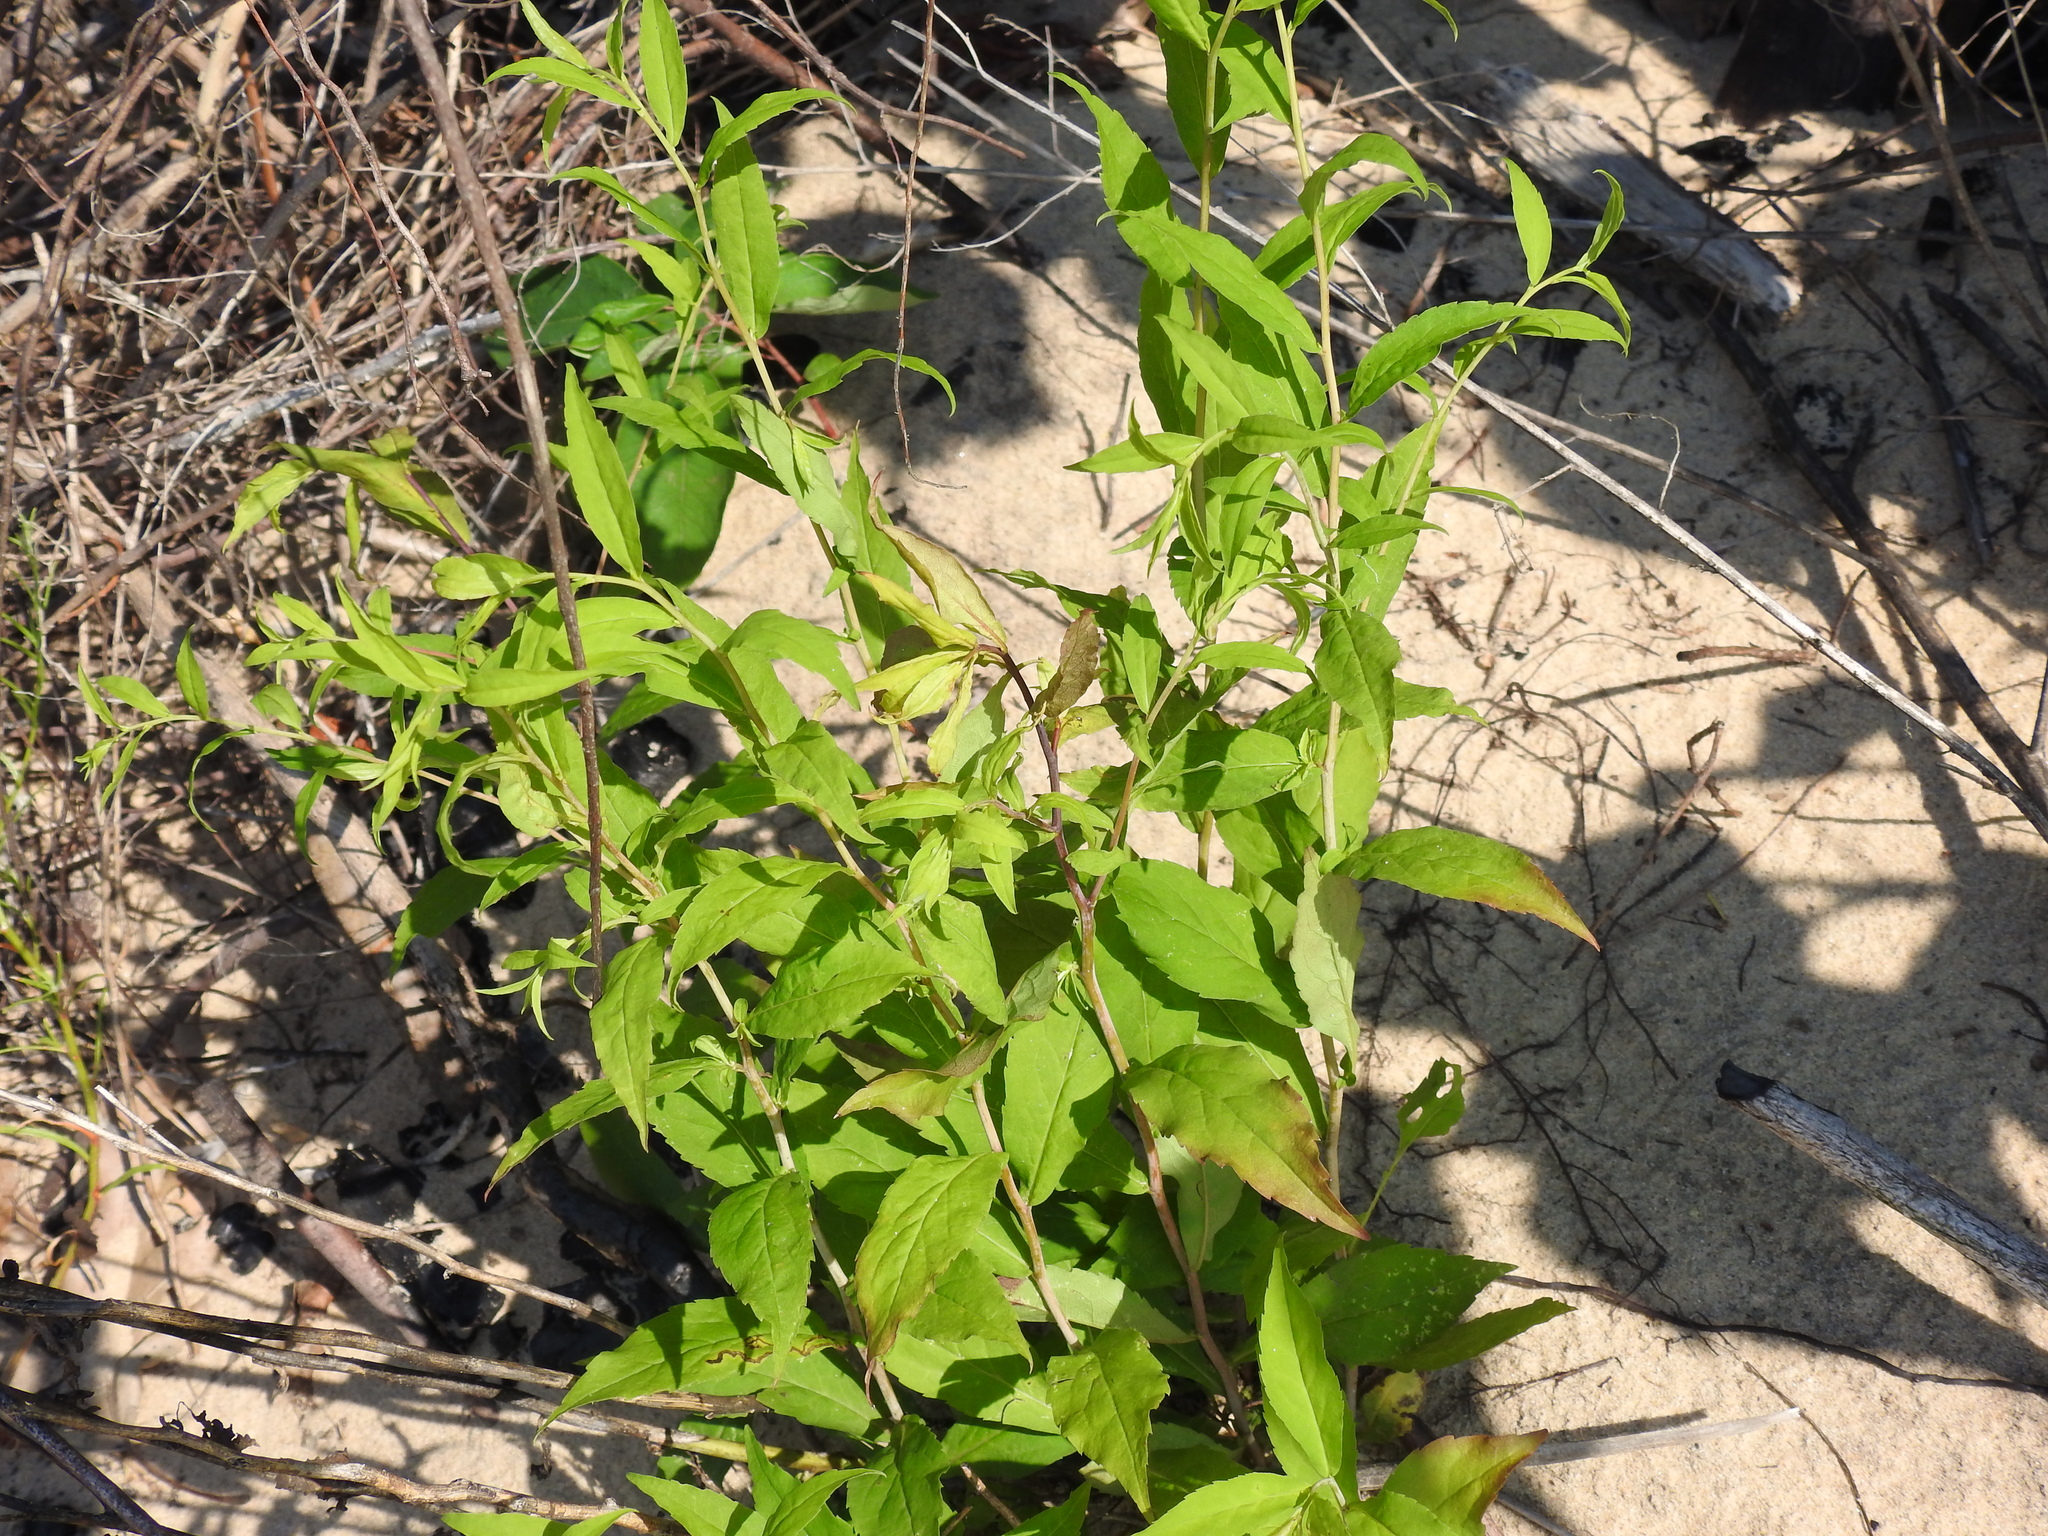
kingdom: Plantae
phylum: Tracheophyta
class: Magnoliopsida
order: Asterales
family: Campanulaceae
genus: Campanula
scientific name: Campanula rapunculoides
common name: Creeping bellflower
